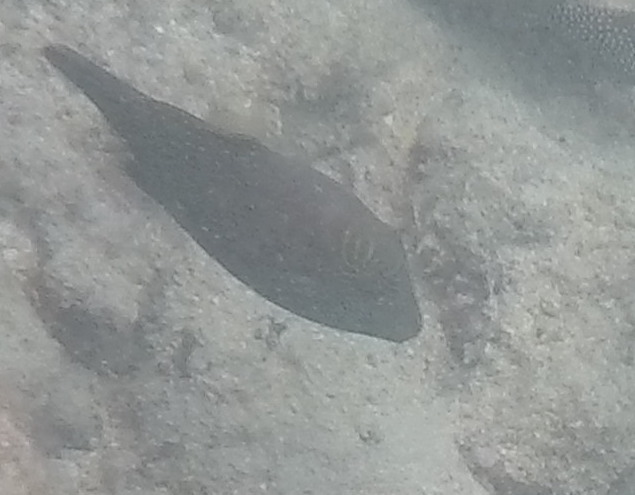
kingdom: Animalia
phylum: Chordata
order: Tetraodontiformes
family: Tetraodontidae
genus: Canthigaster
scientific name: Canthigaster amboinensis
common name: Ambon pufferfish
